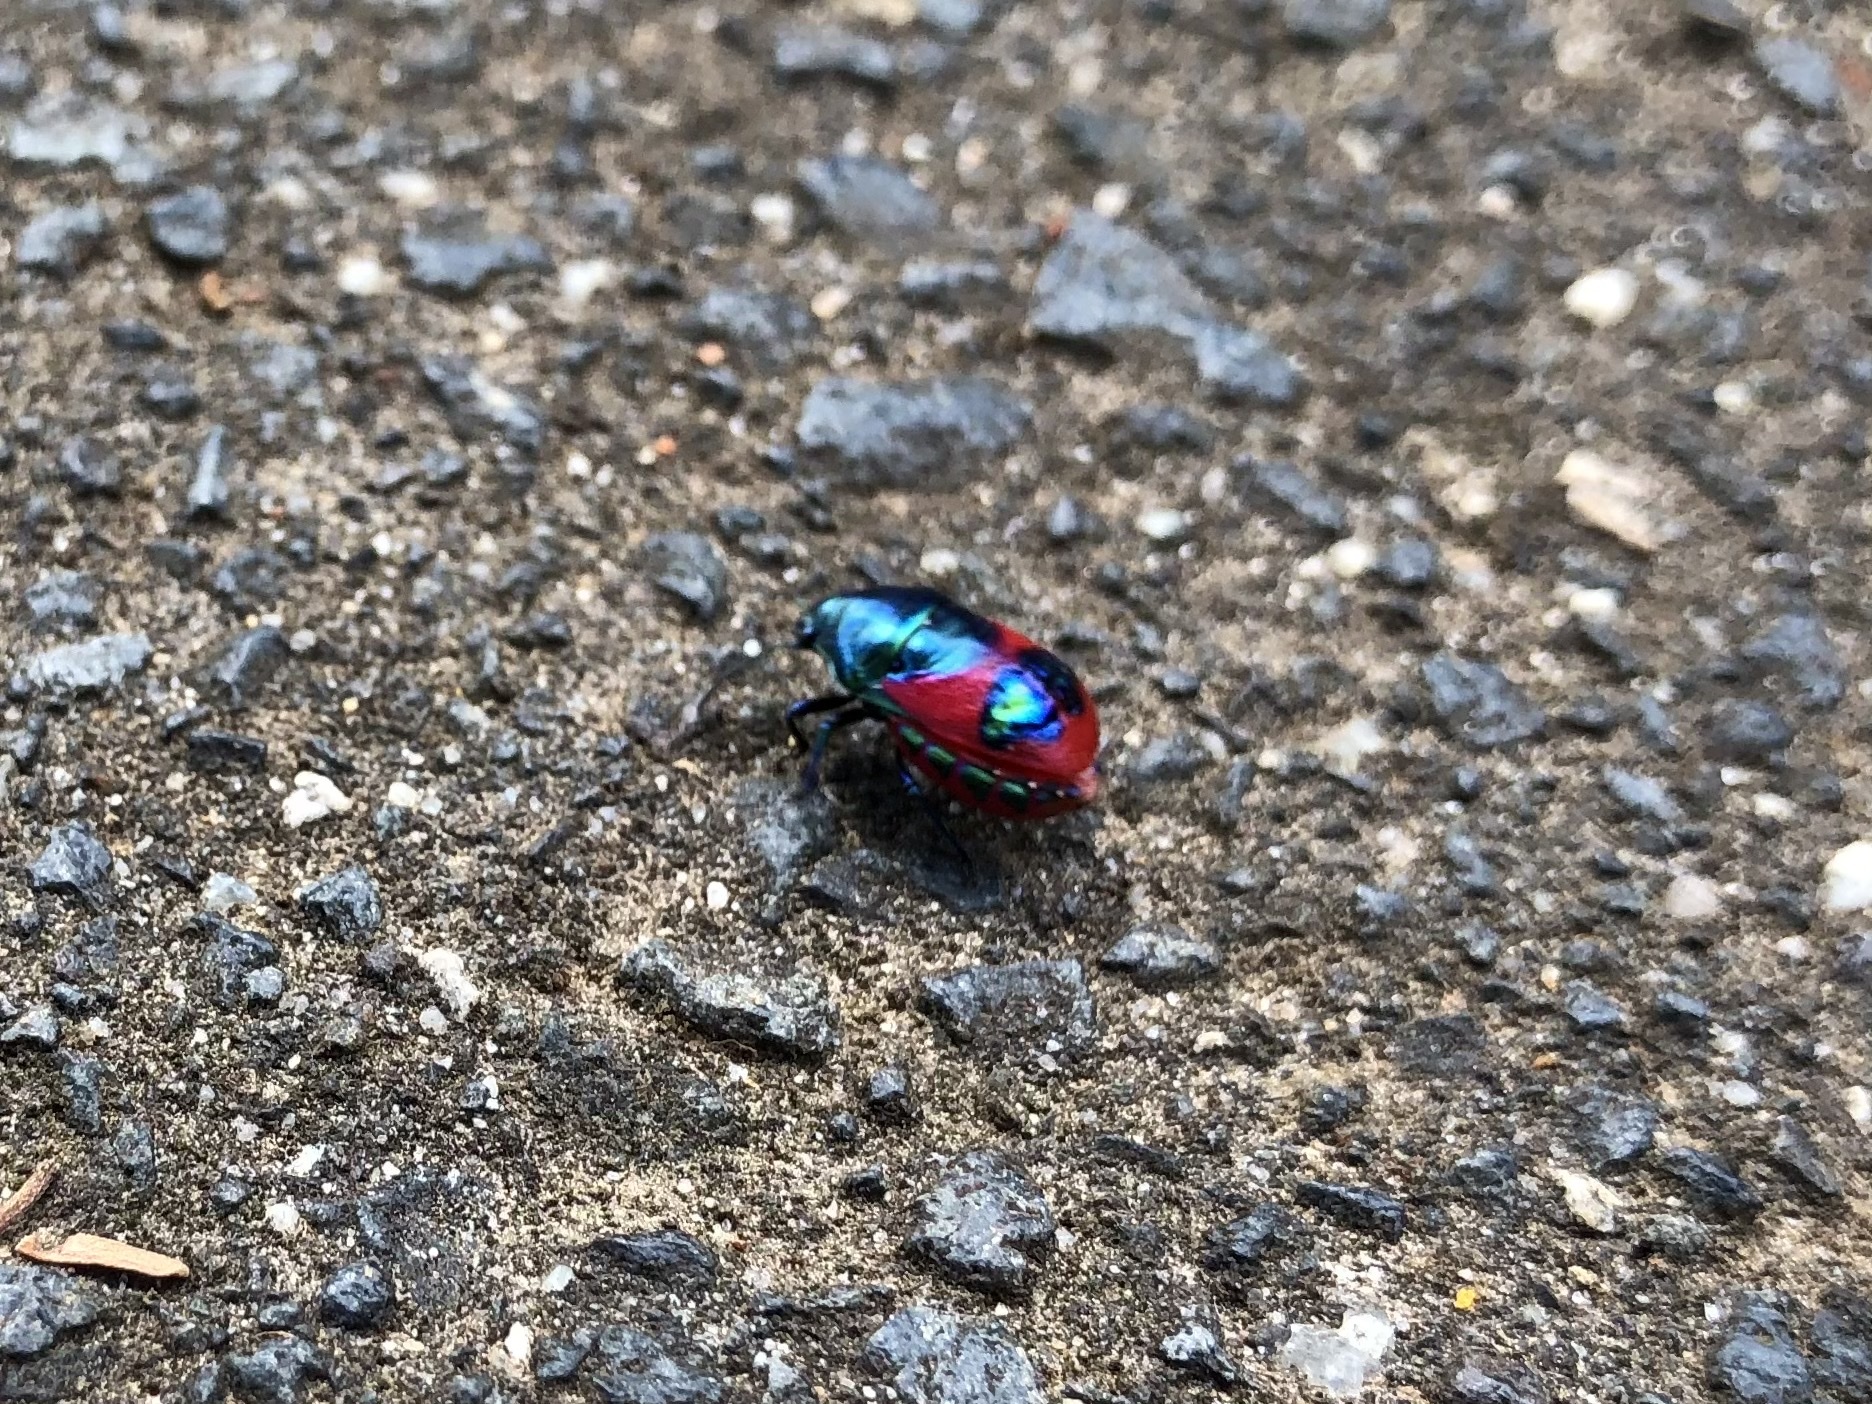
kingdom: Animalia
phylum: Arthropoda
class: Insecta
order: Hemiptera
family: Scutelleridae
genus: Choerocoris
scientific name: Choerocoris paganus
